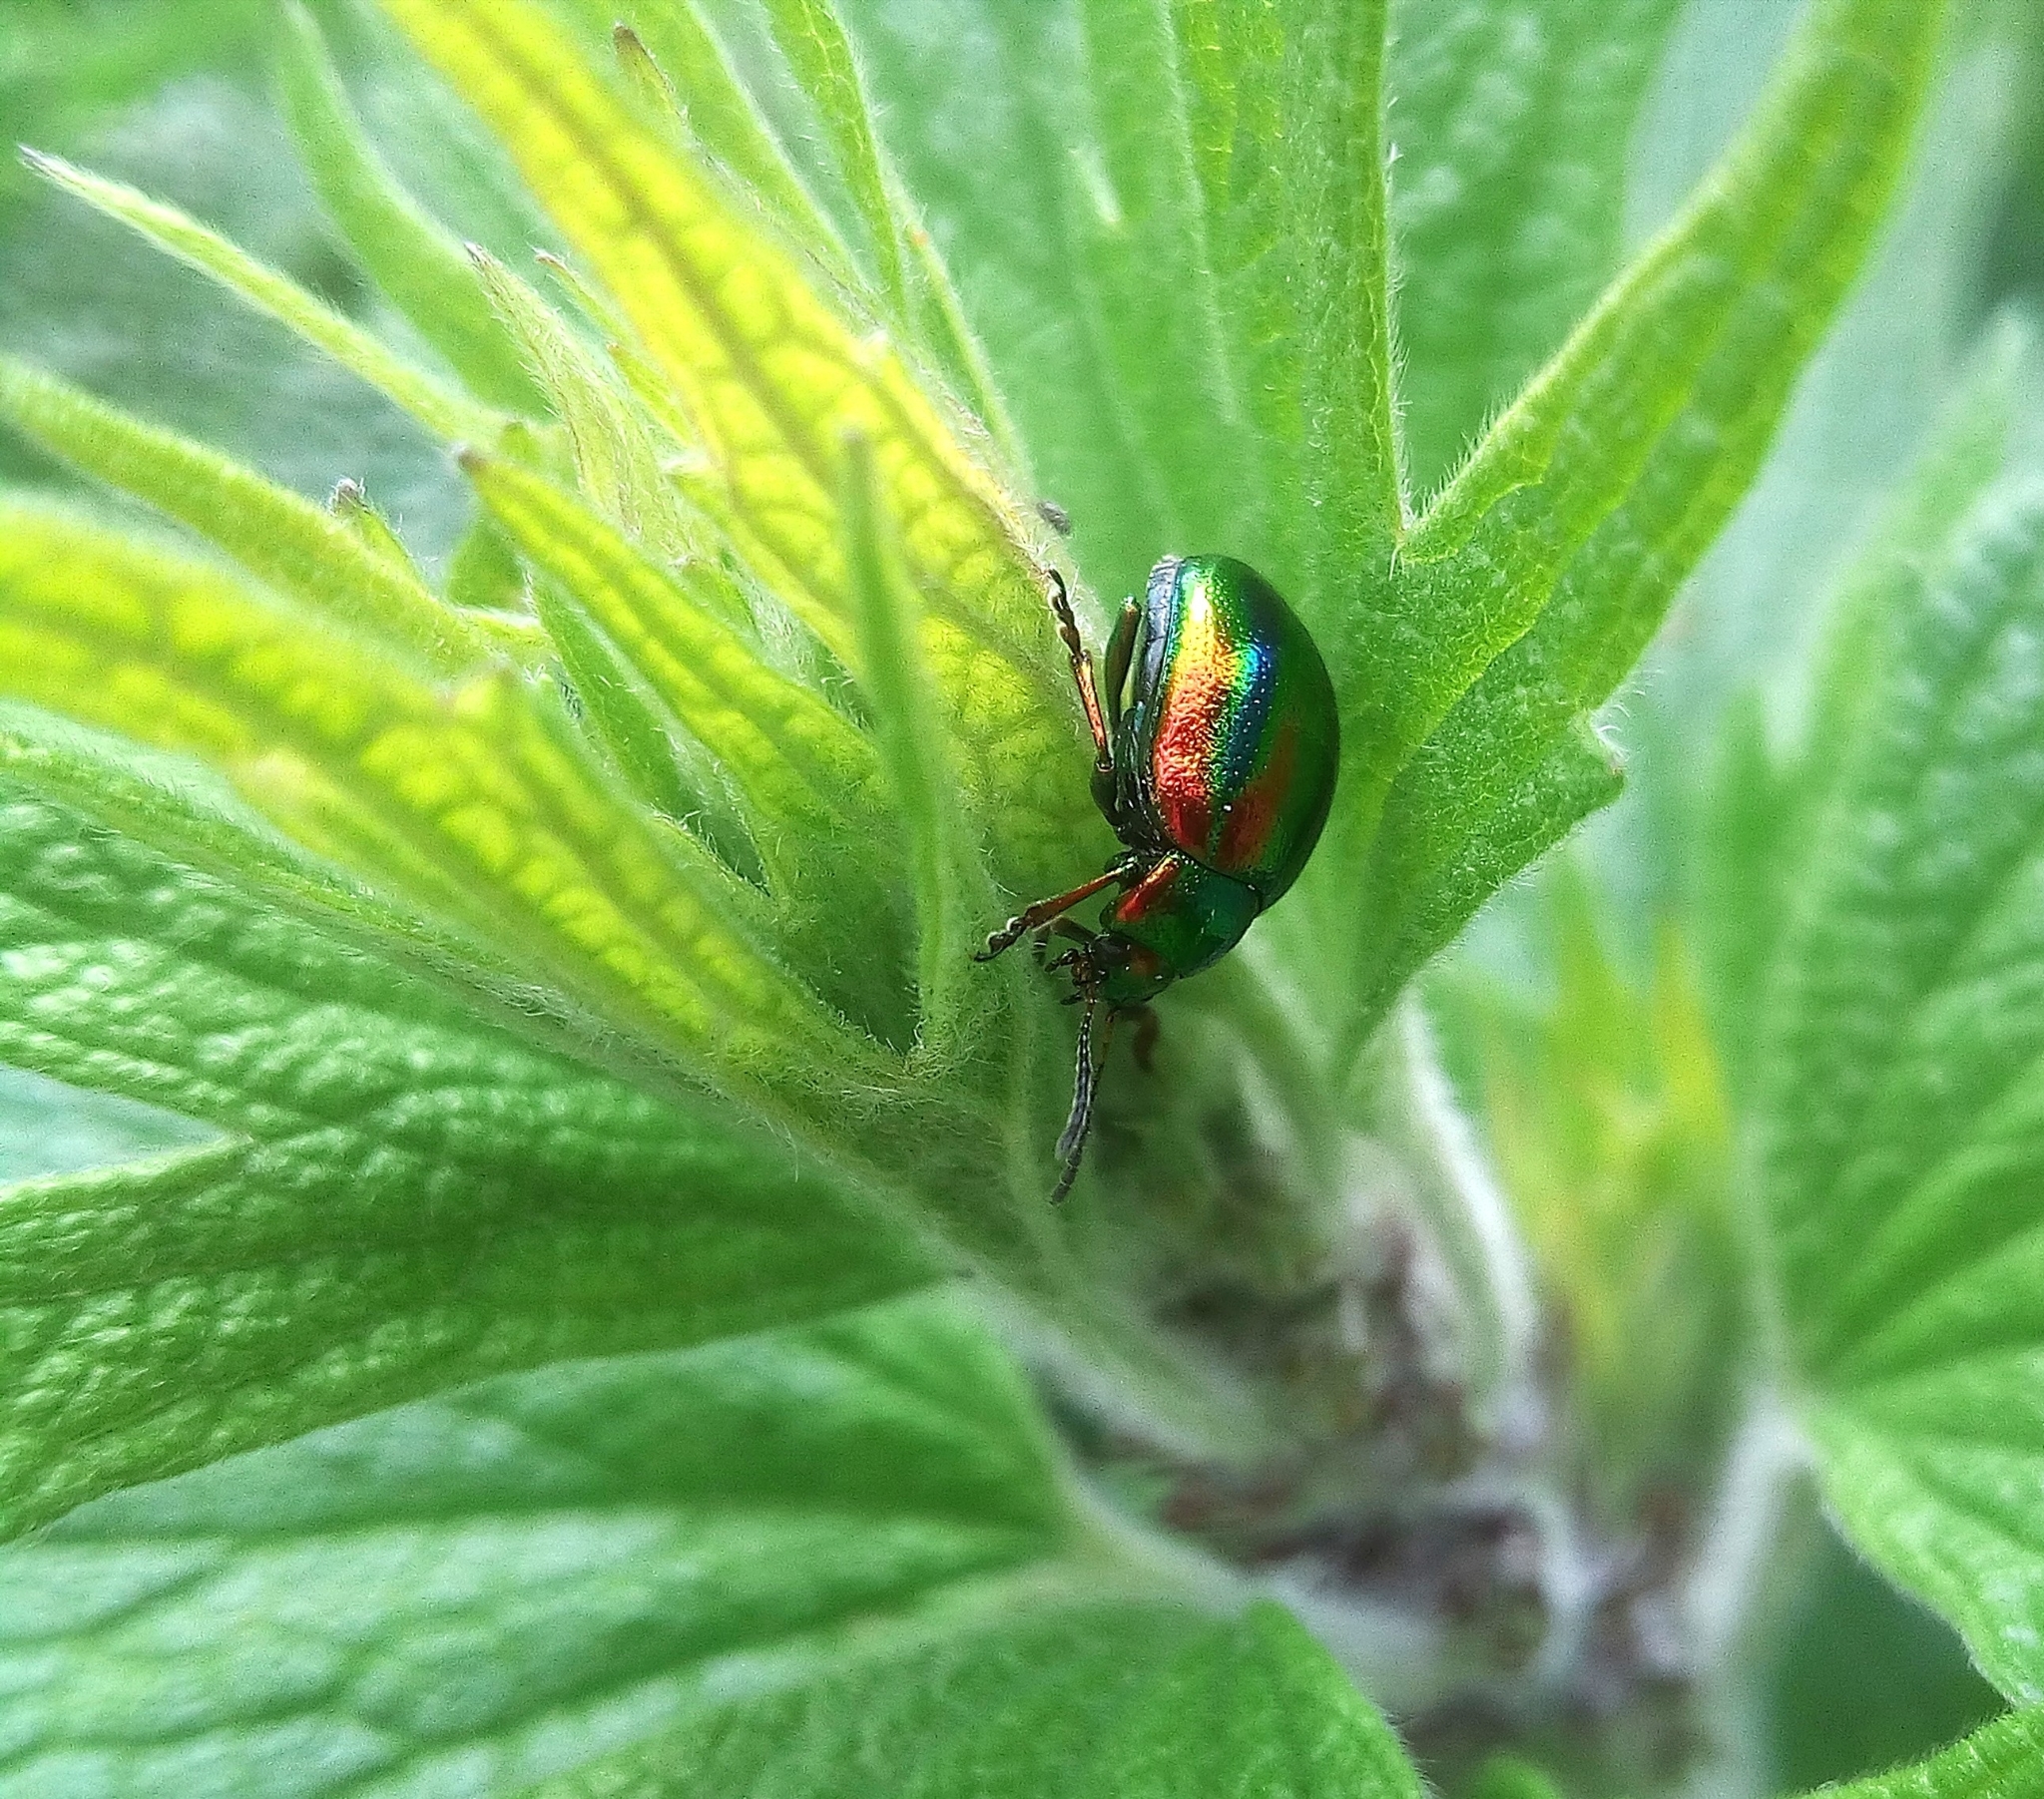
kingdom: Animalia
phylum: Arthropoda
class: Insecta
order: Coleoptera
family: Chrysomelidae
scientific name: Chrysomelidae
